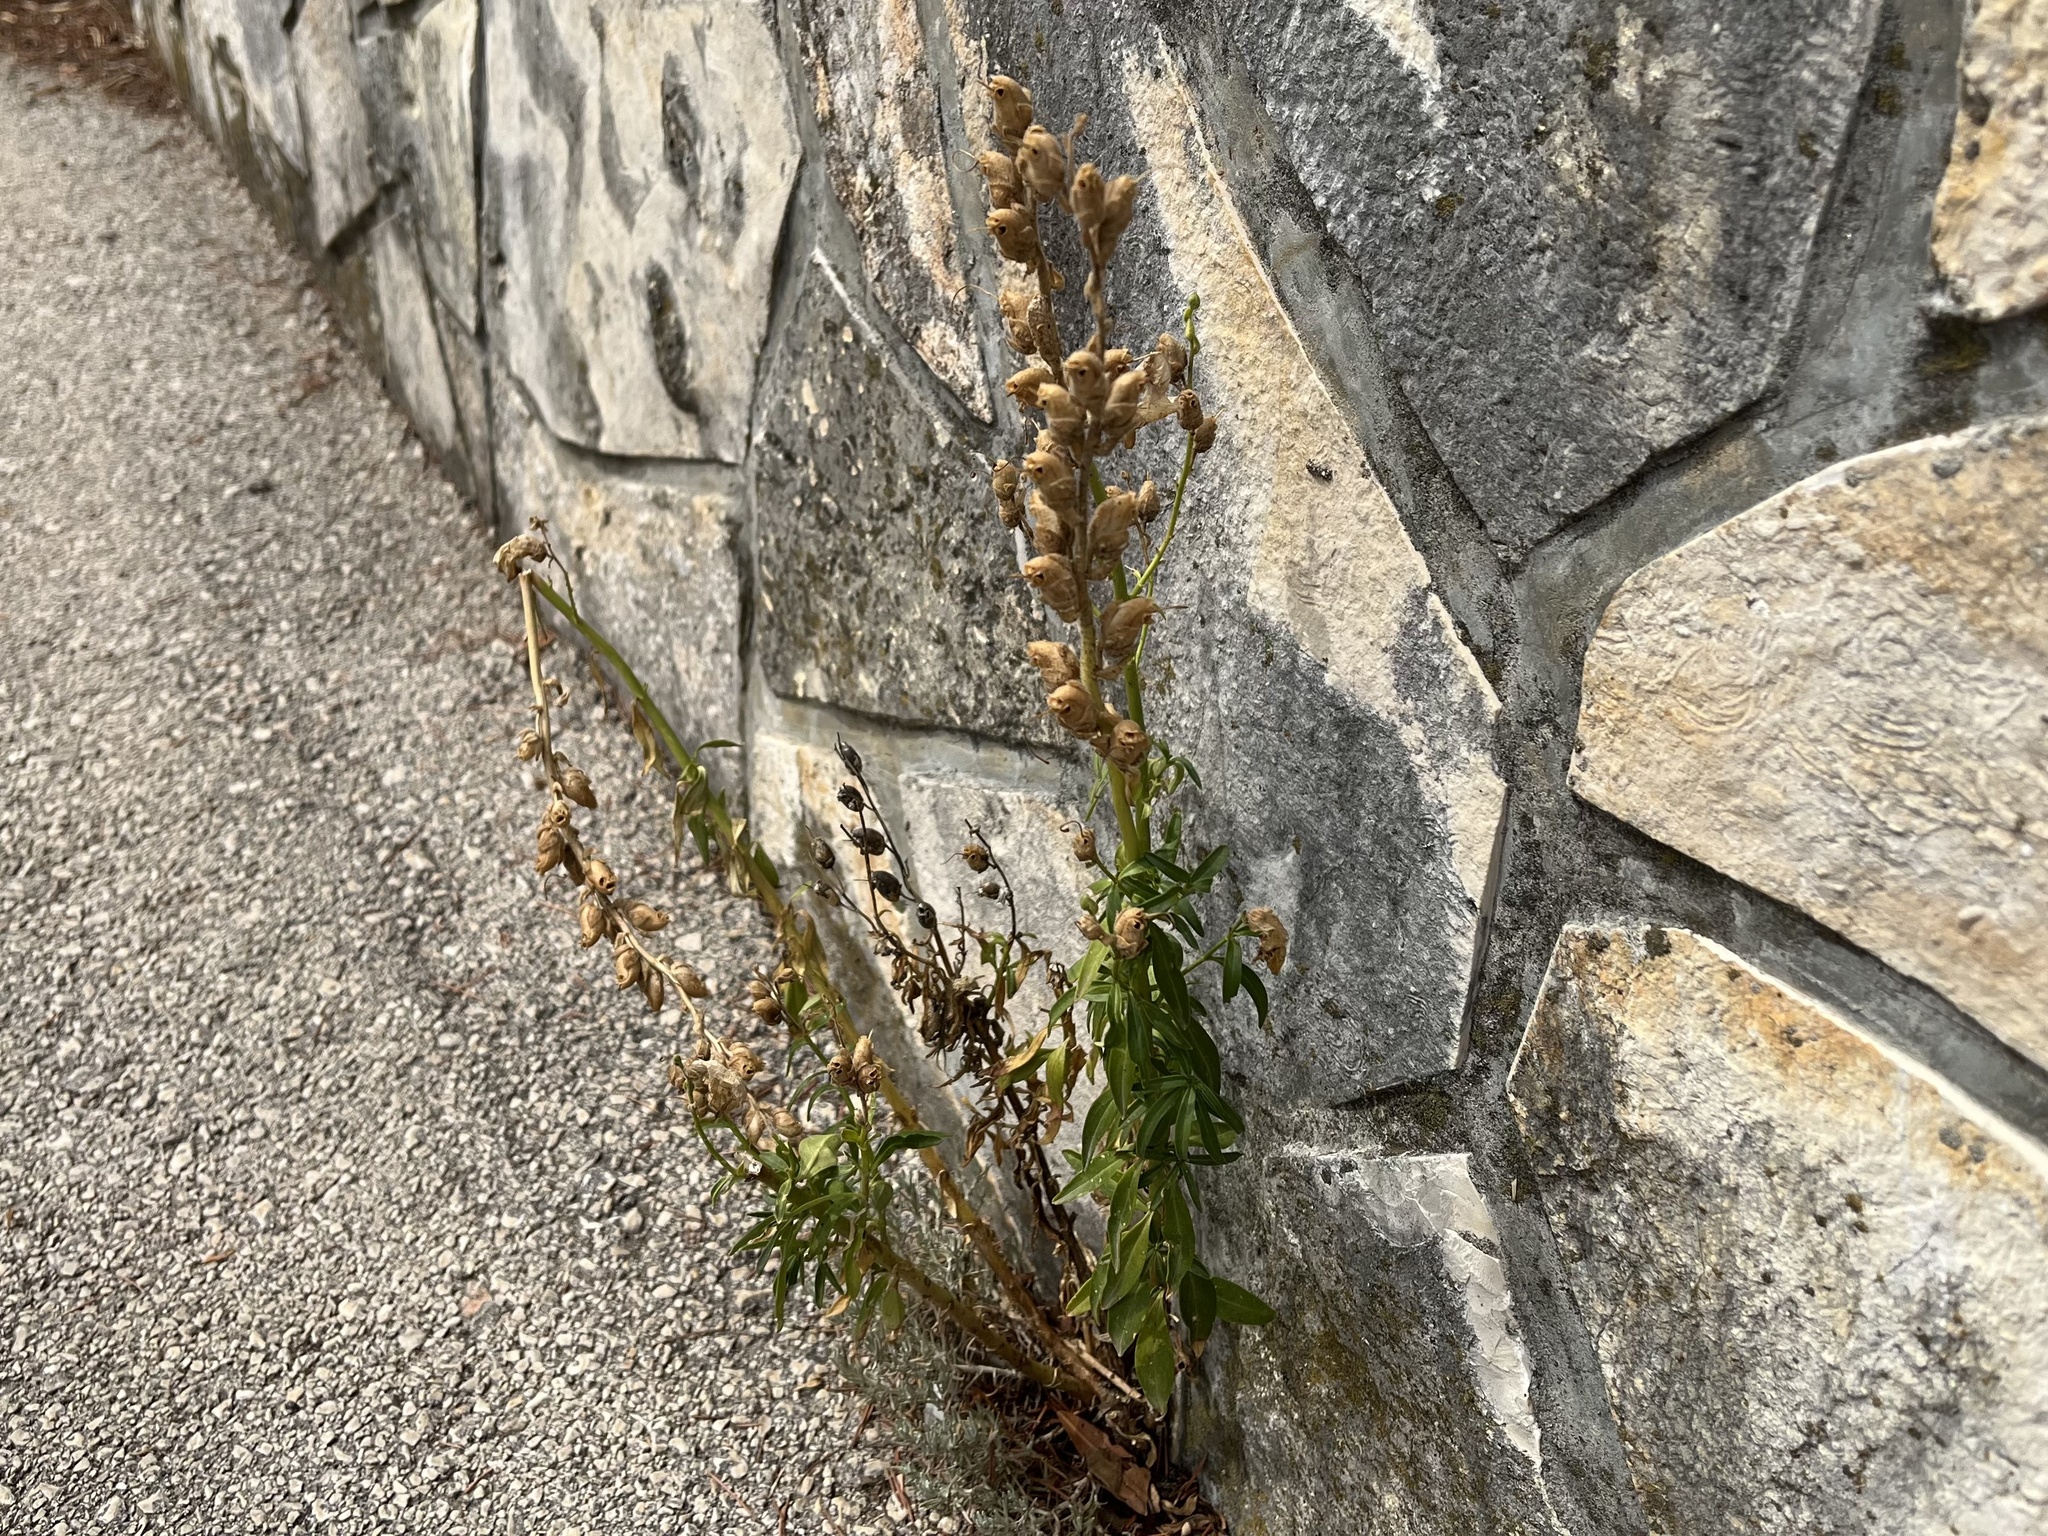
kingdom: Plantae
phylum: Tracheophyta
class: Magnoliopsida
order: Lamiales
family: Plantaginaceae
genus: Antirrhinum
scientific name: Antirrhinum majus
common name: Snapdragon
